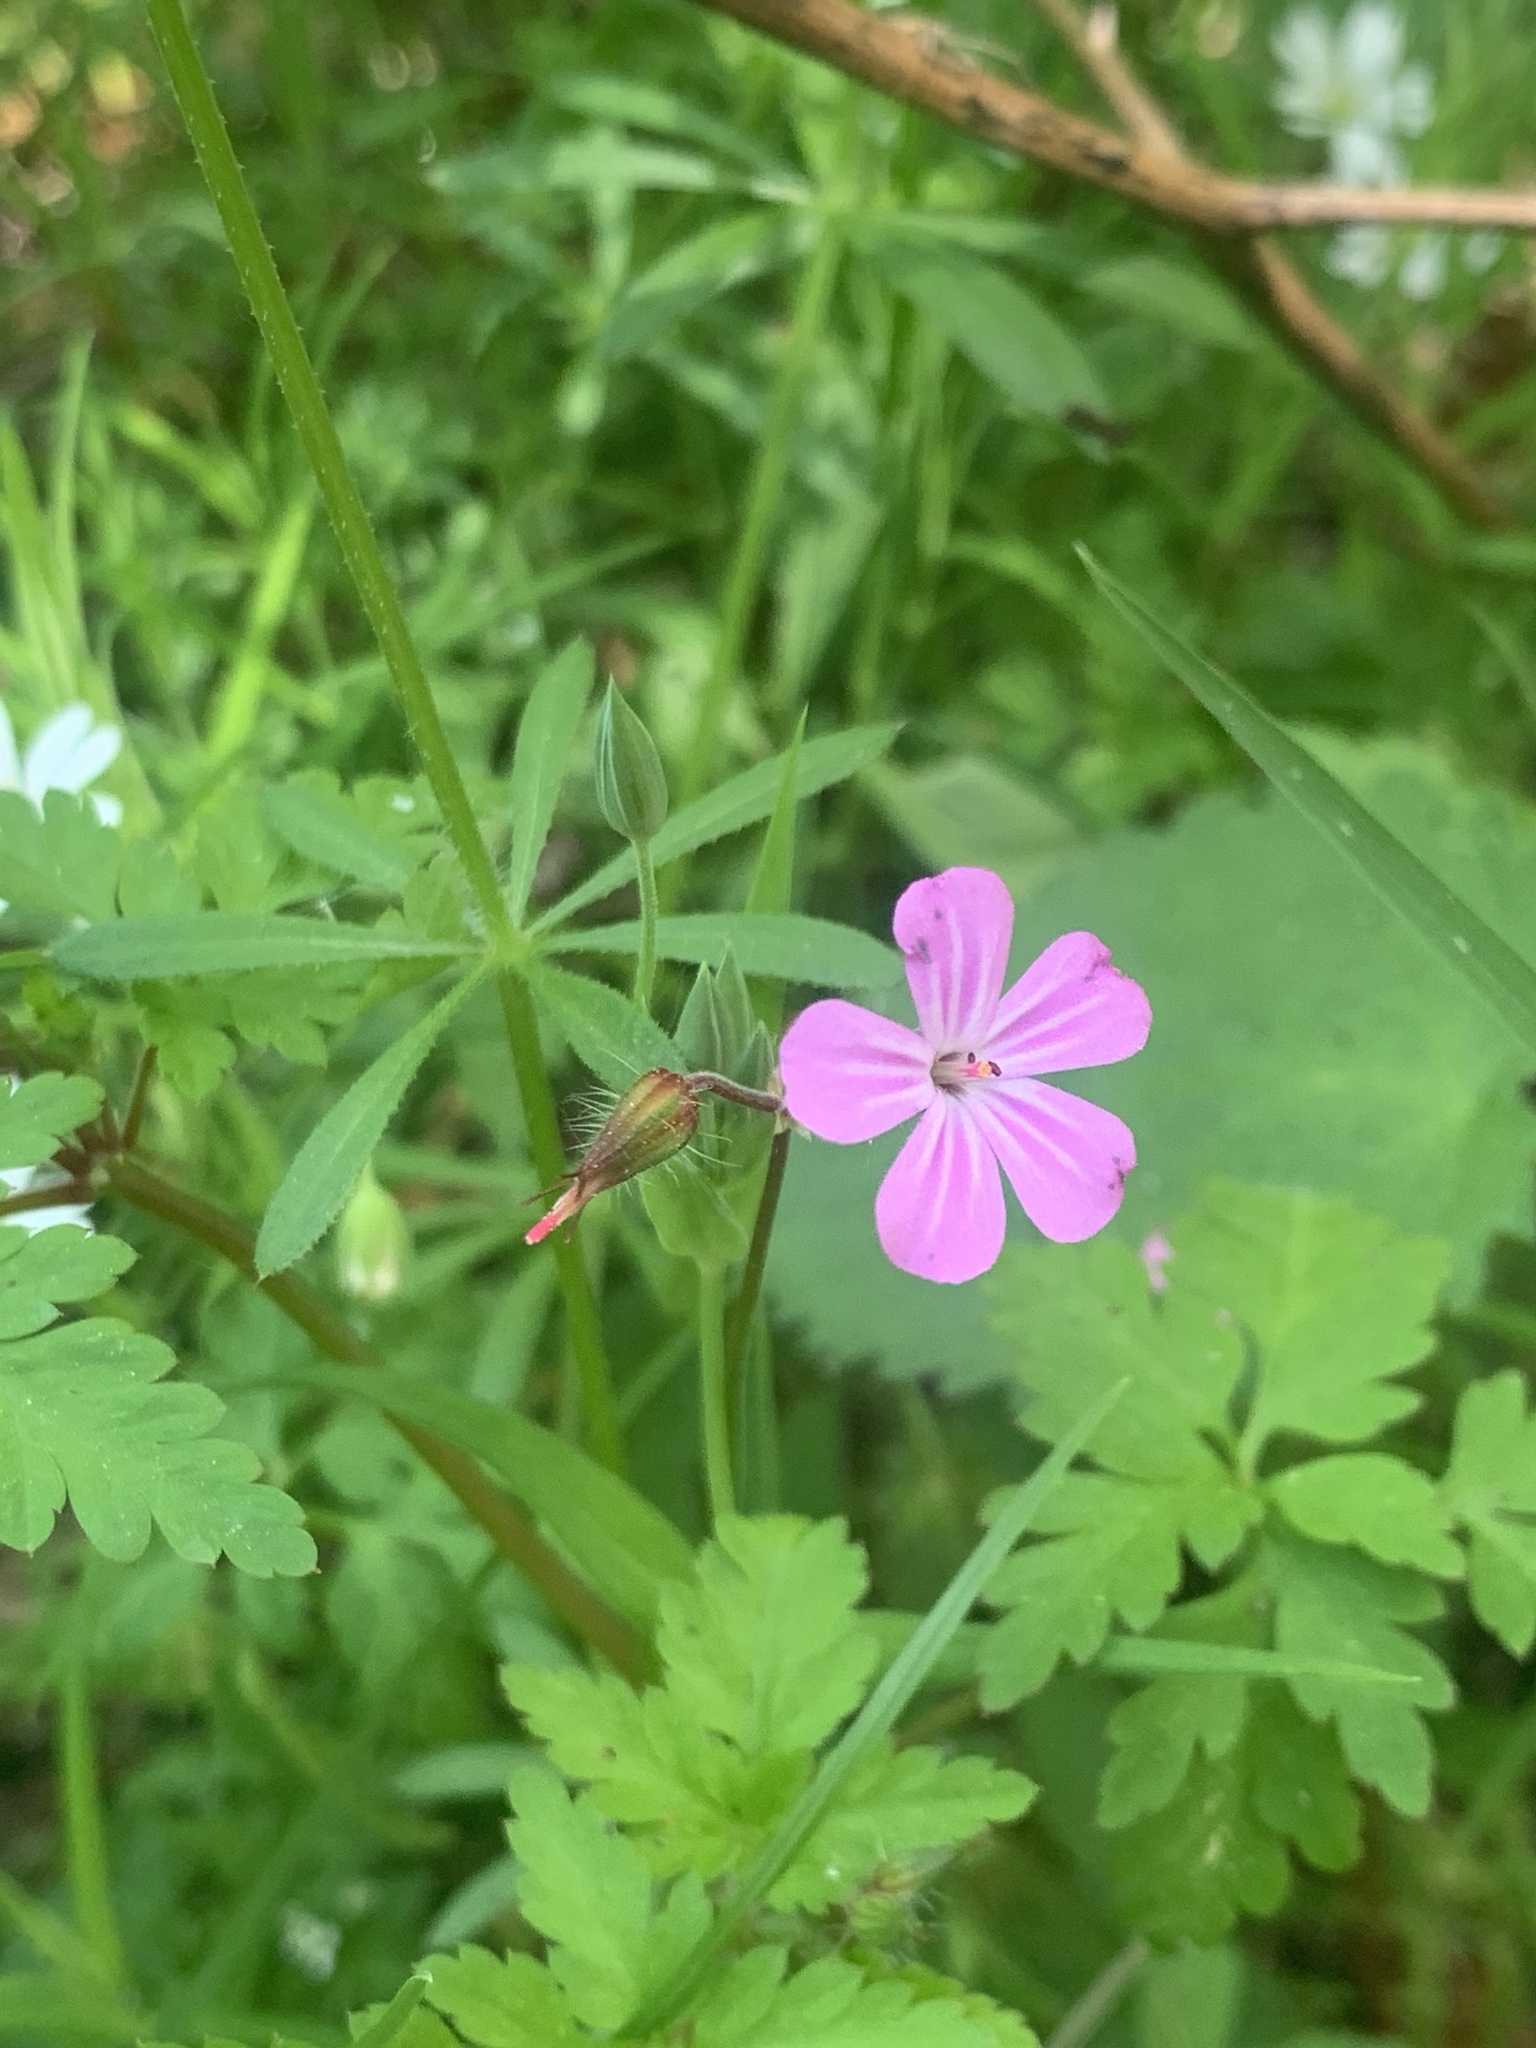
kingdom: Plantae
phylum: Tracheophyta
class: Magnoliopsida
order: Geraniales
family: Geraniaceae
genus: Geranium
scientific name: Geranium robertianum
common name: Herb-robert
